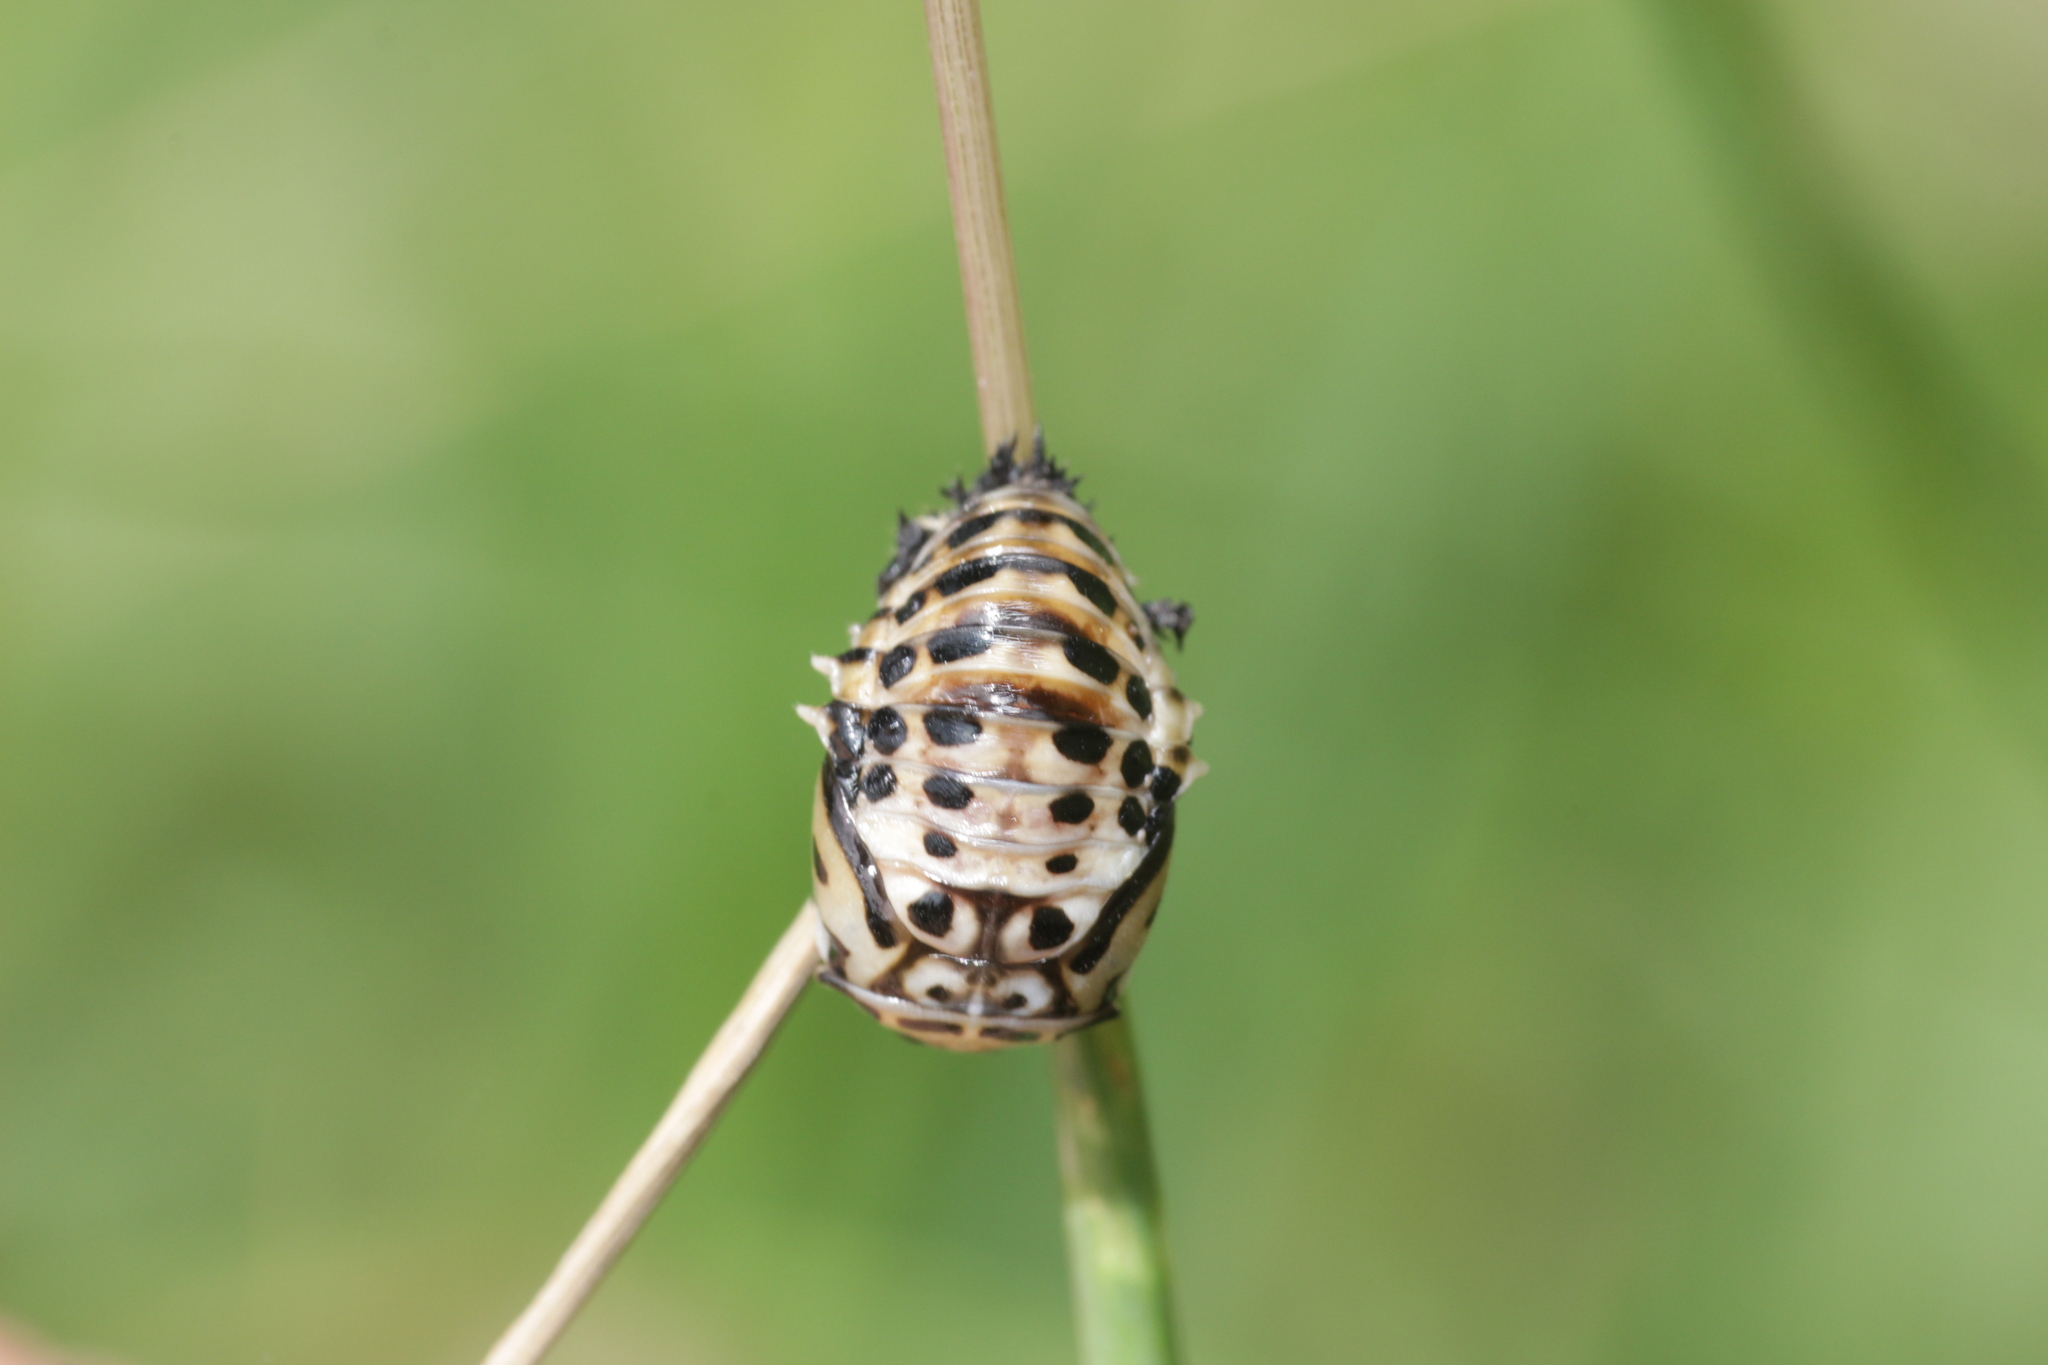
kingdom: Animalia
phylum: Arthropoda
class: Insecta
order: Coleoptera
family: Coccinellidae
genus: Anatis
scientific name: Anatis ocellata
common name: Eyed ladybird
